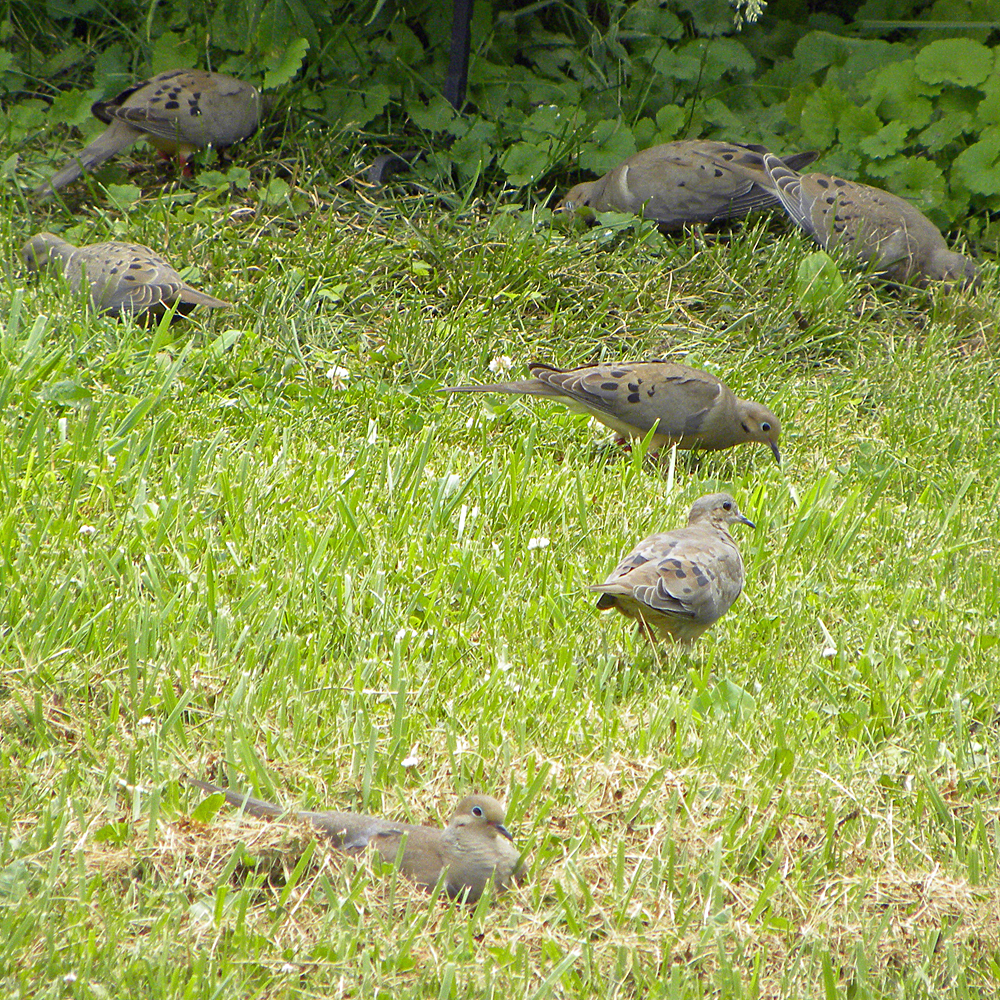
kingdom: Animalia
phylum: Chordata
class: Aves
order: Columbiformes
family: Columbidae
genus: Zenaida
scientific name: Zenaida macroura
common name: Mourning dove
